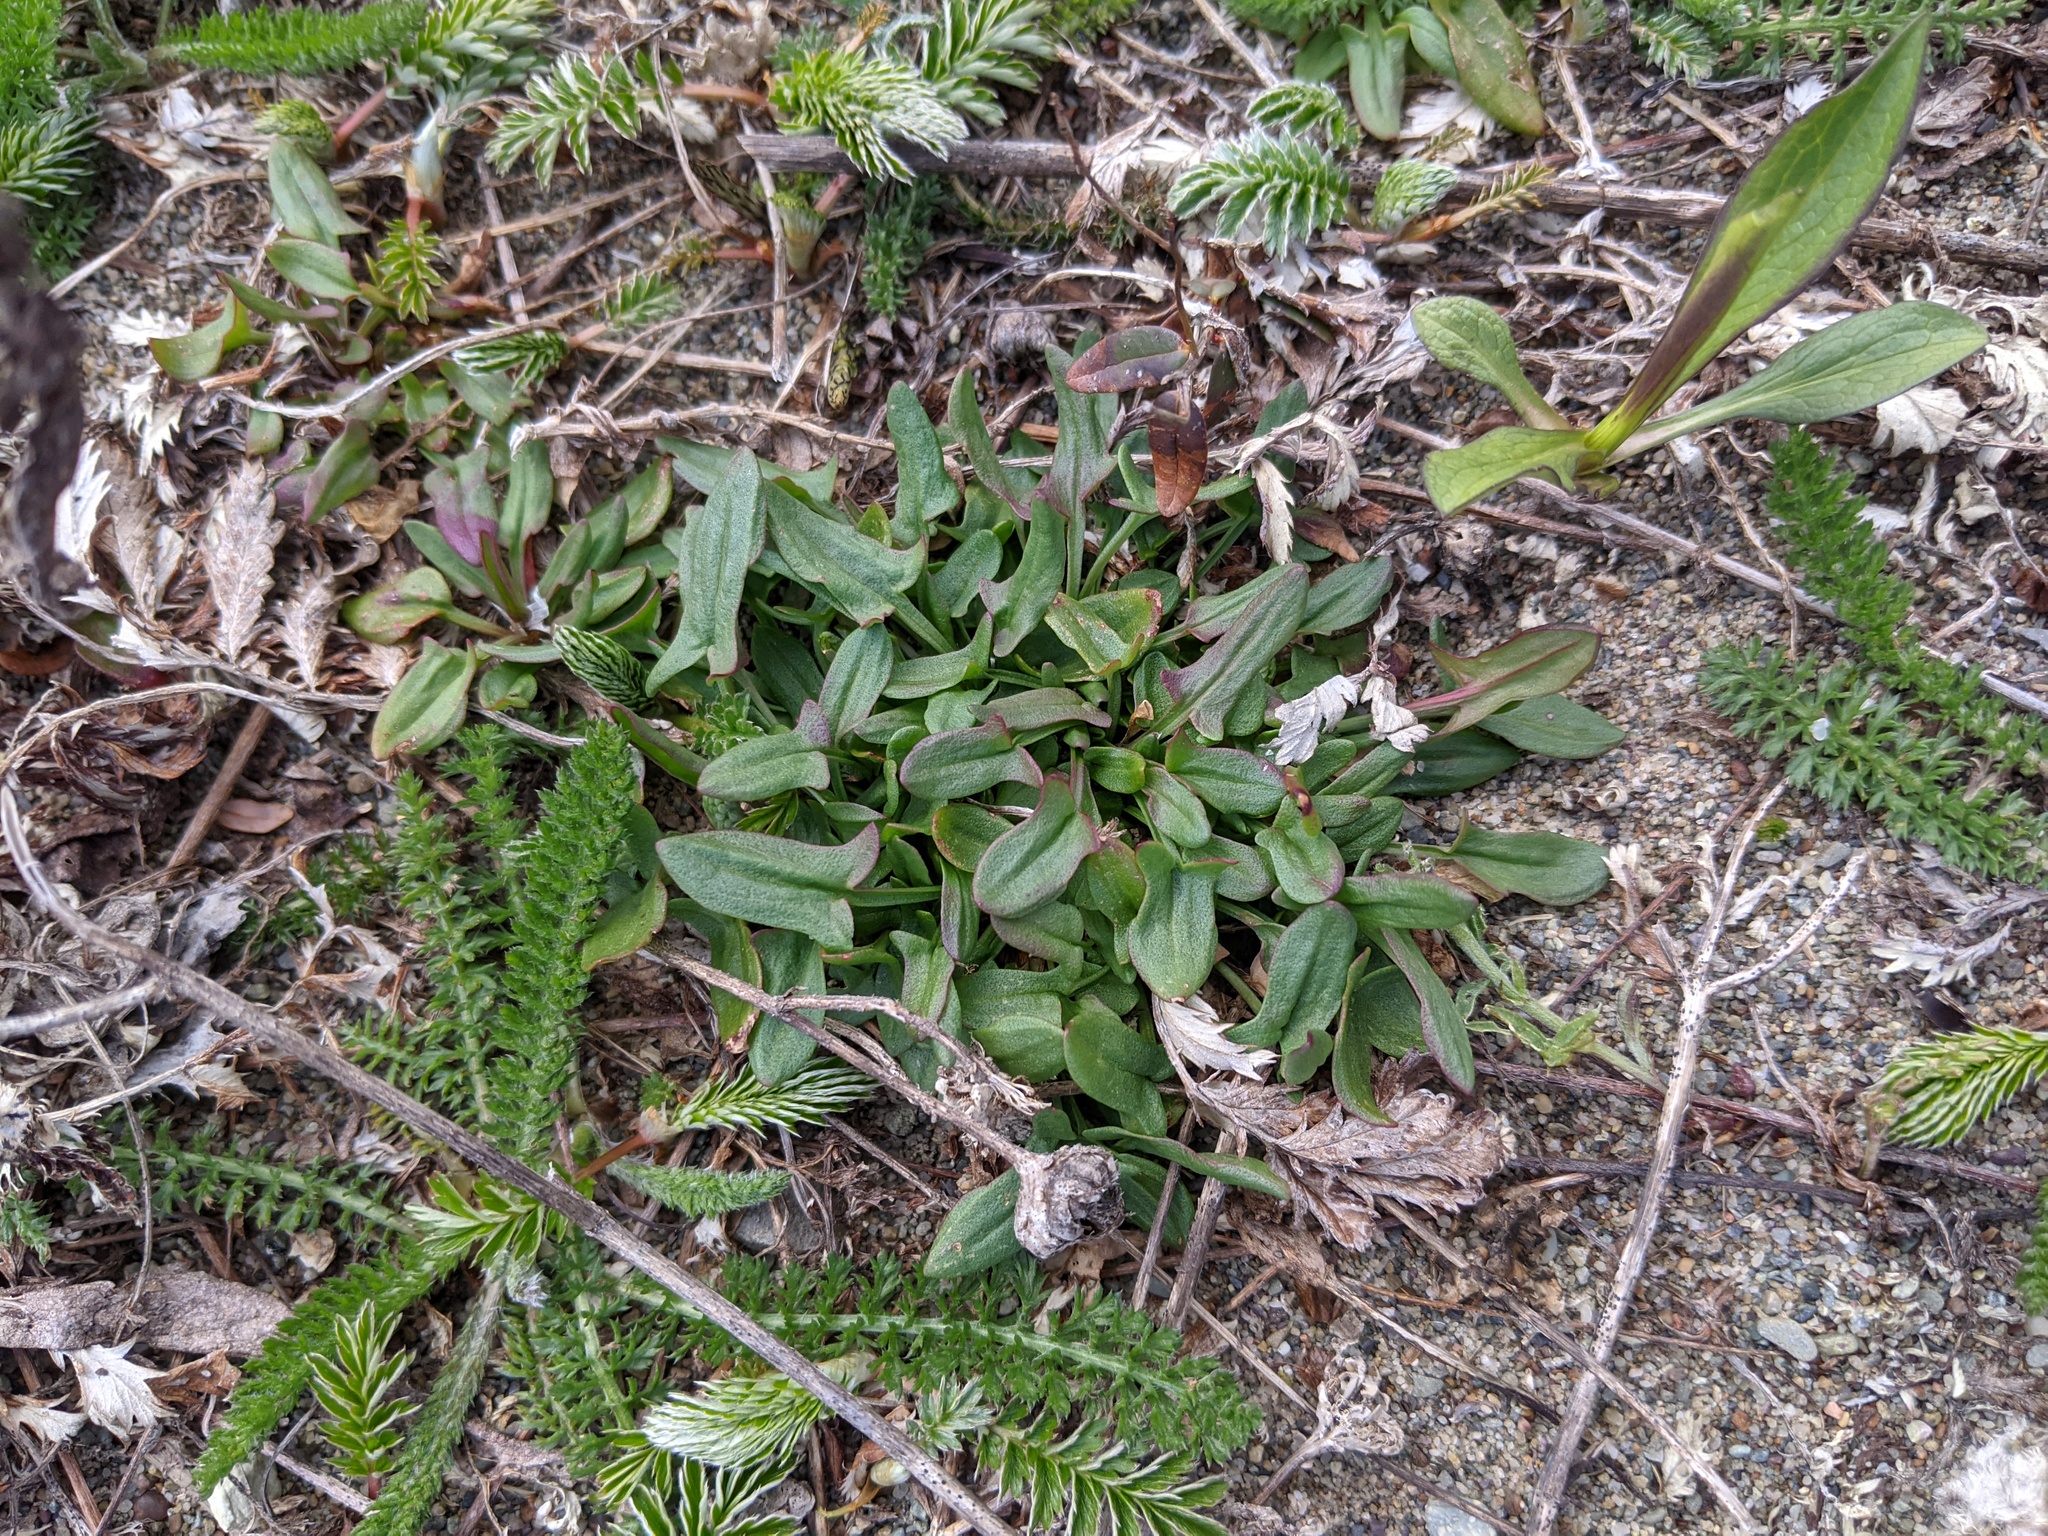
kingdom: Plantae
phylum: Tracheophyta
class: Magnoliopsida
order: Caryophyllales
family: Polygonaceae
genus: Rumex
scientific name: Rumex acetosella
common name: Common sheep sorrel
